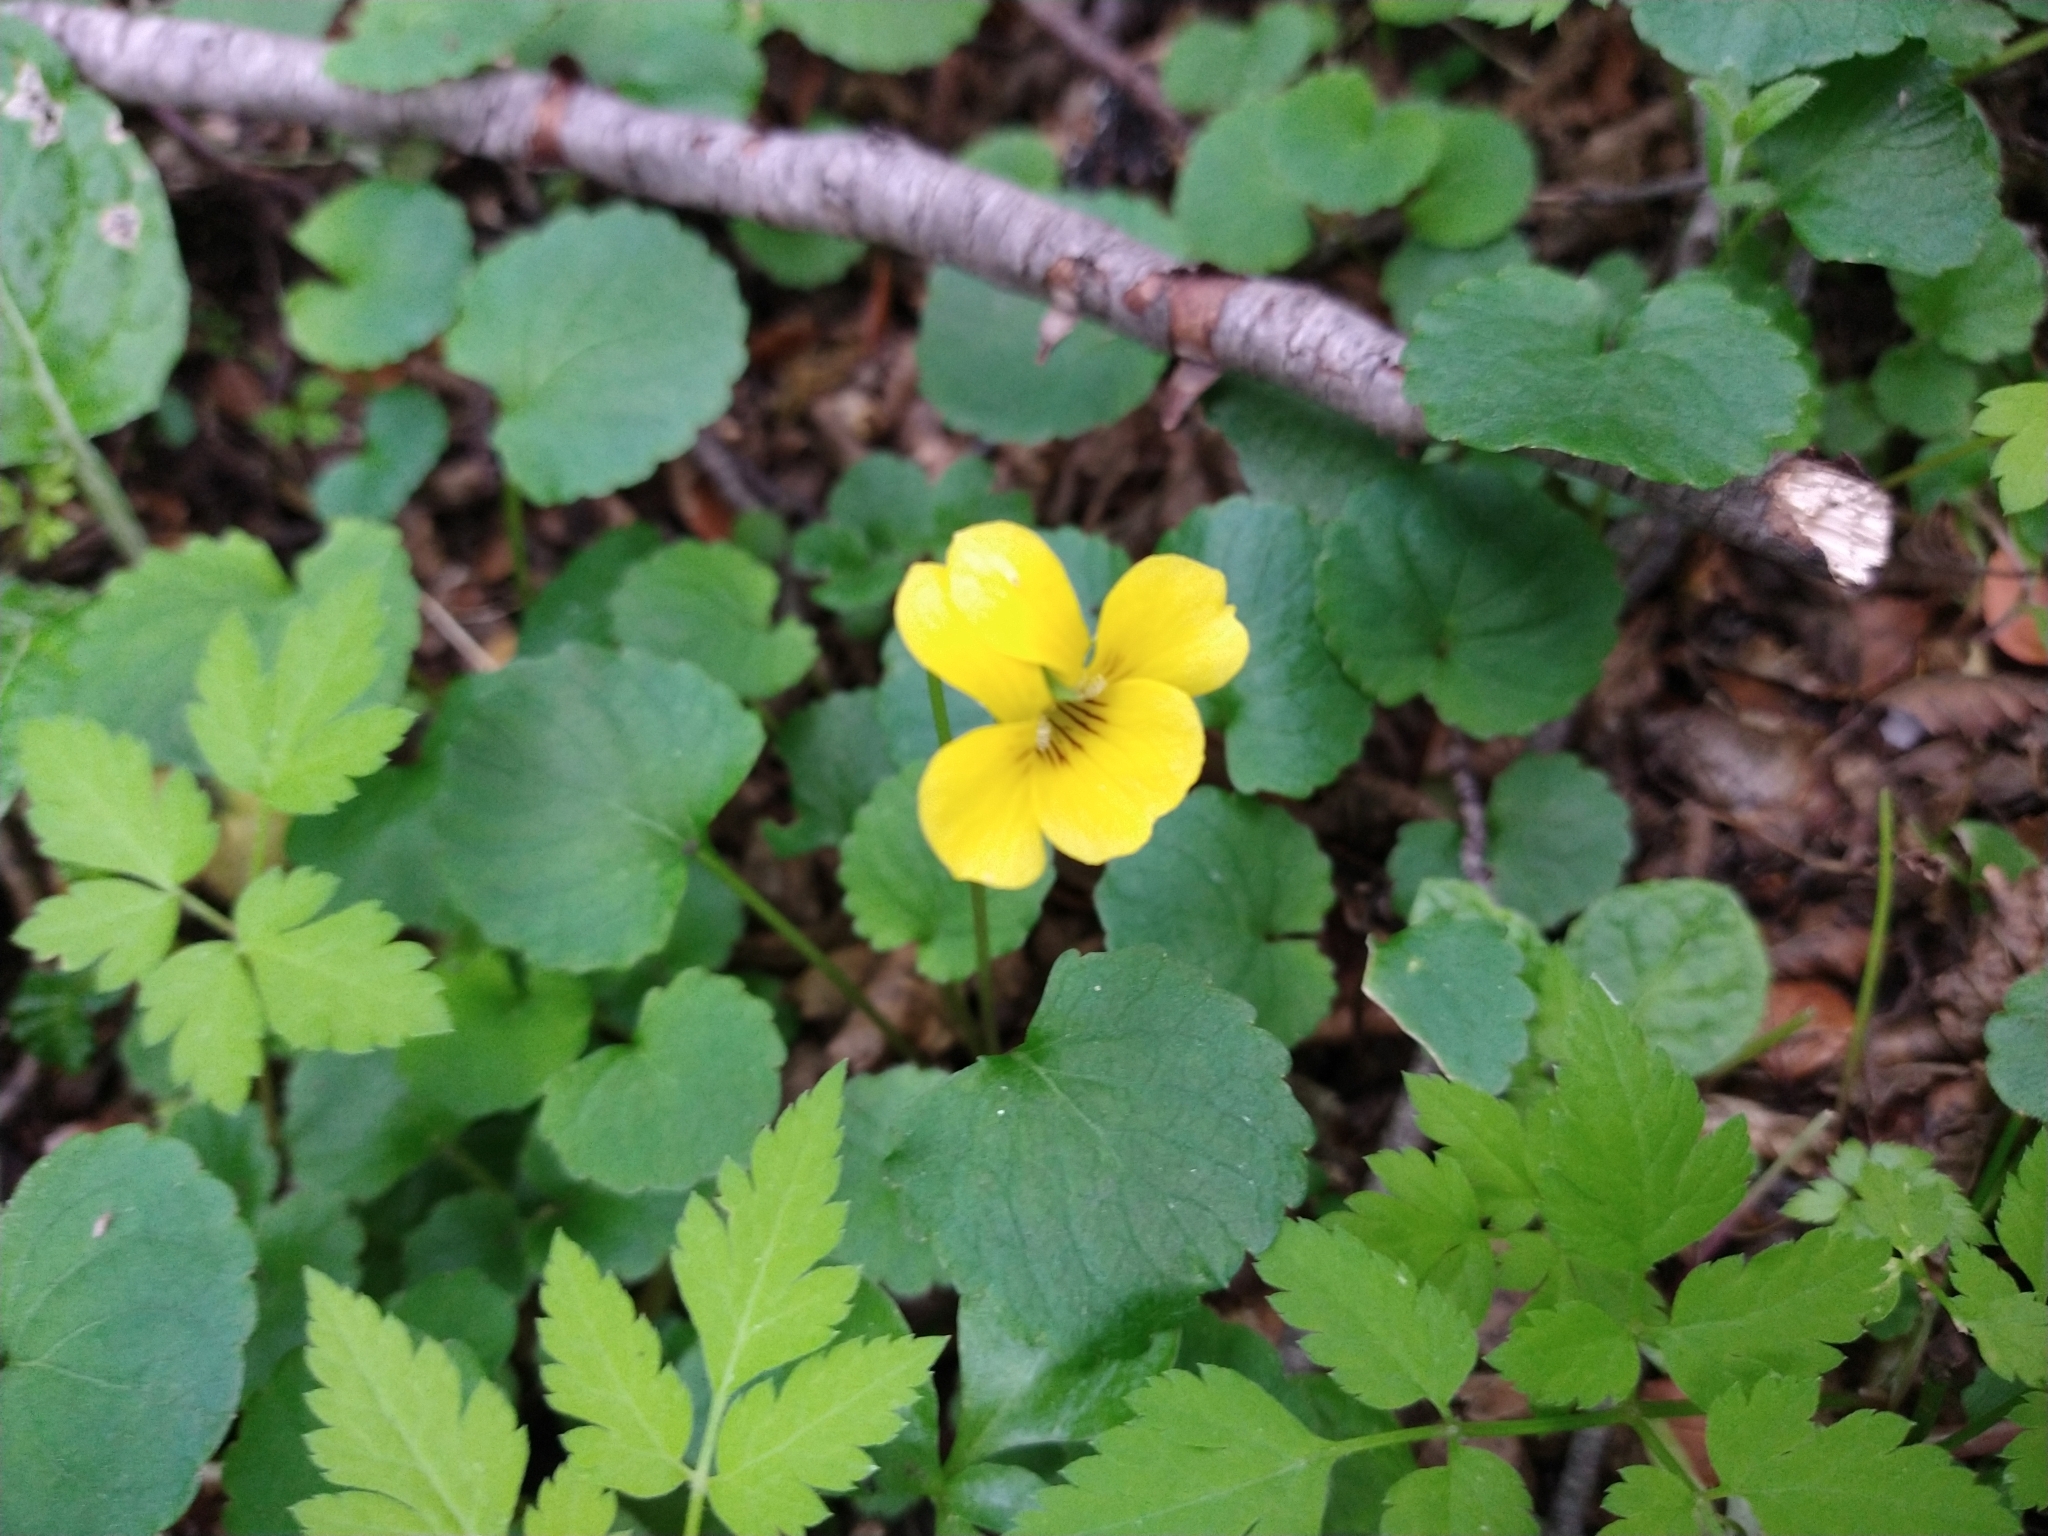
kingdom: Plantae
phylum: Tracheophyta
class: Magnoliopsida
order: Malpighiales
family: Violaceae
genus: Viola
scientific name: Viola magellanica
